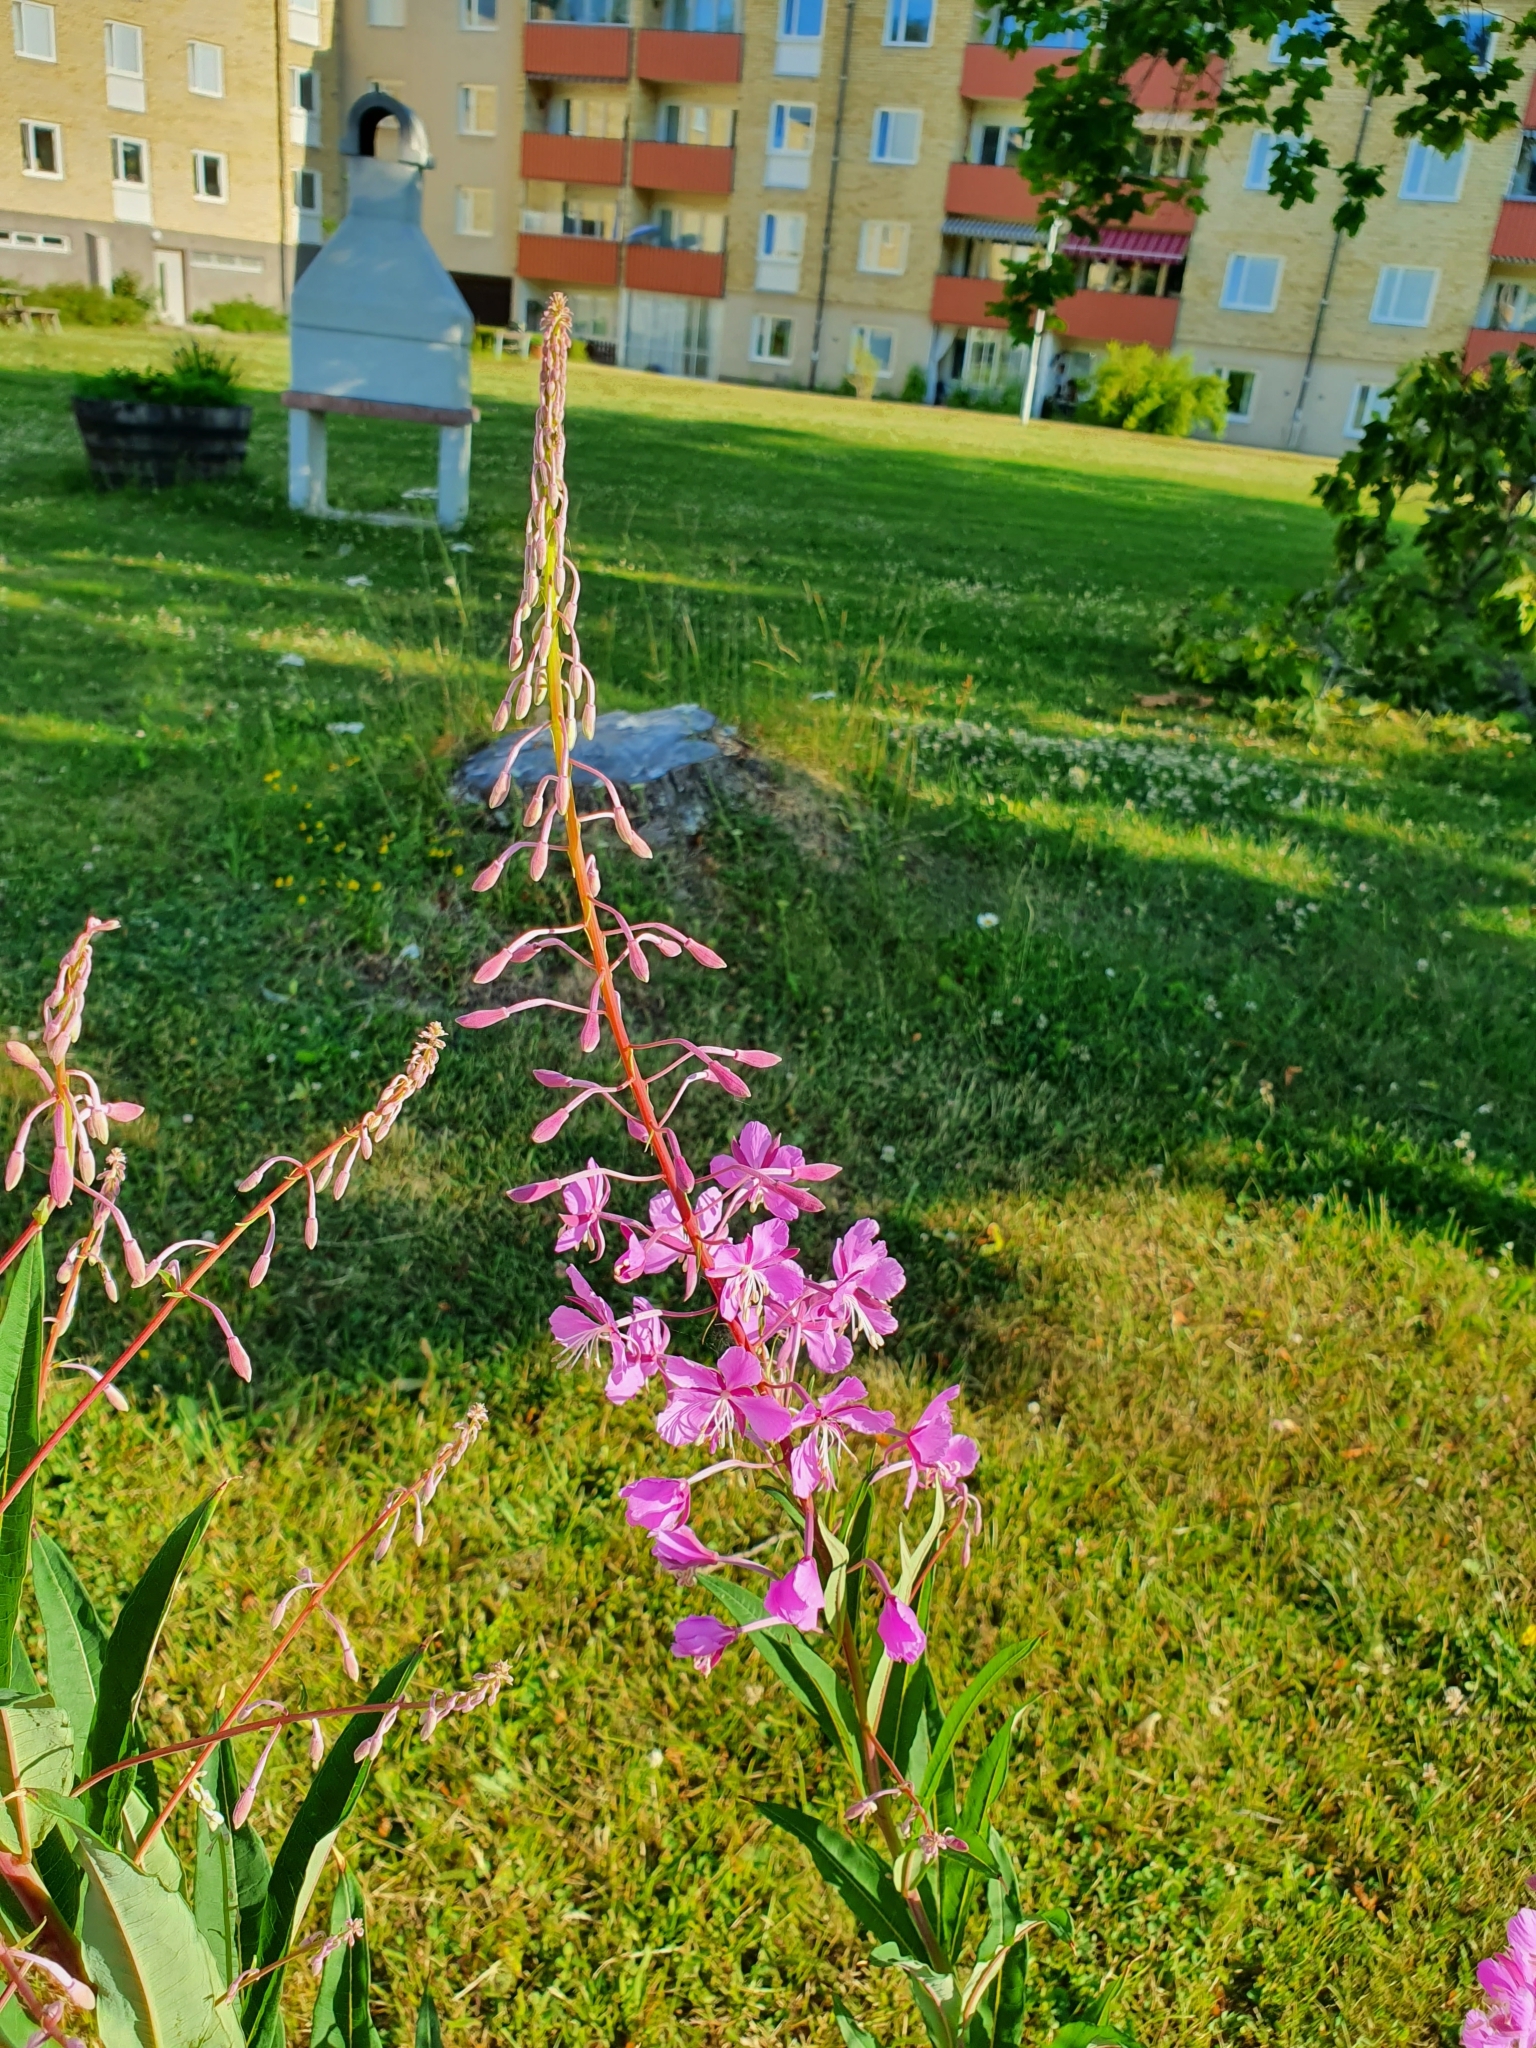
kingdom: Plantae
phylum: Tracheophyta
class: Magnoliopsida
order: Myrtales
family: Onagraceae
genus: Chamaenerion
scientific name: Chamaenerion angustifolium
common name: Fireweed
